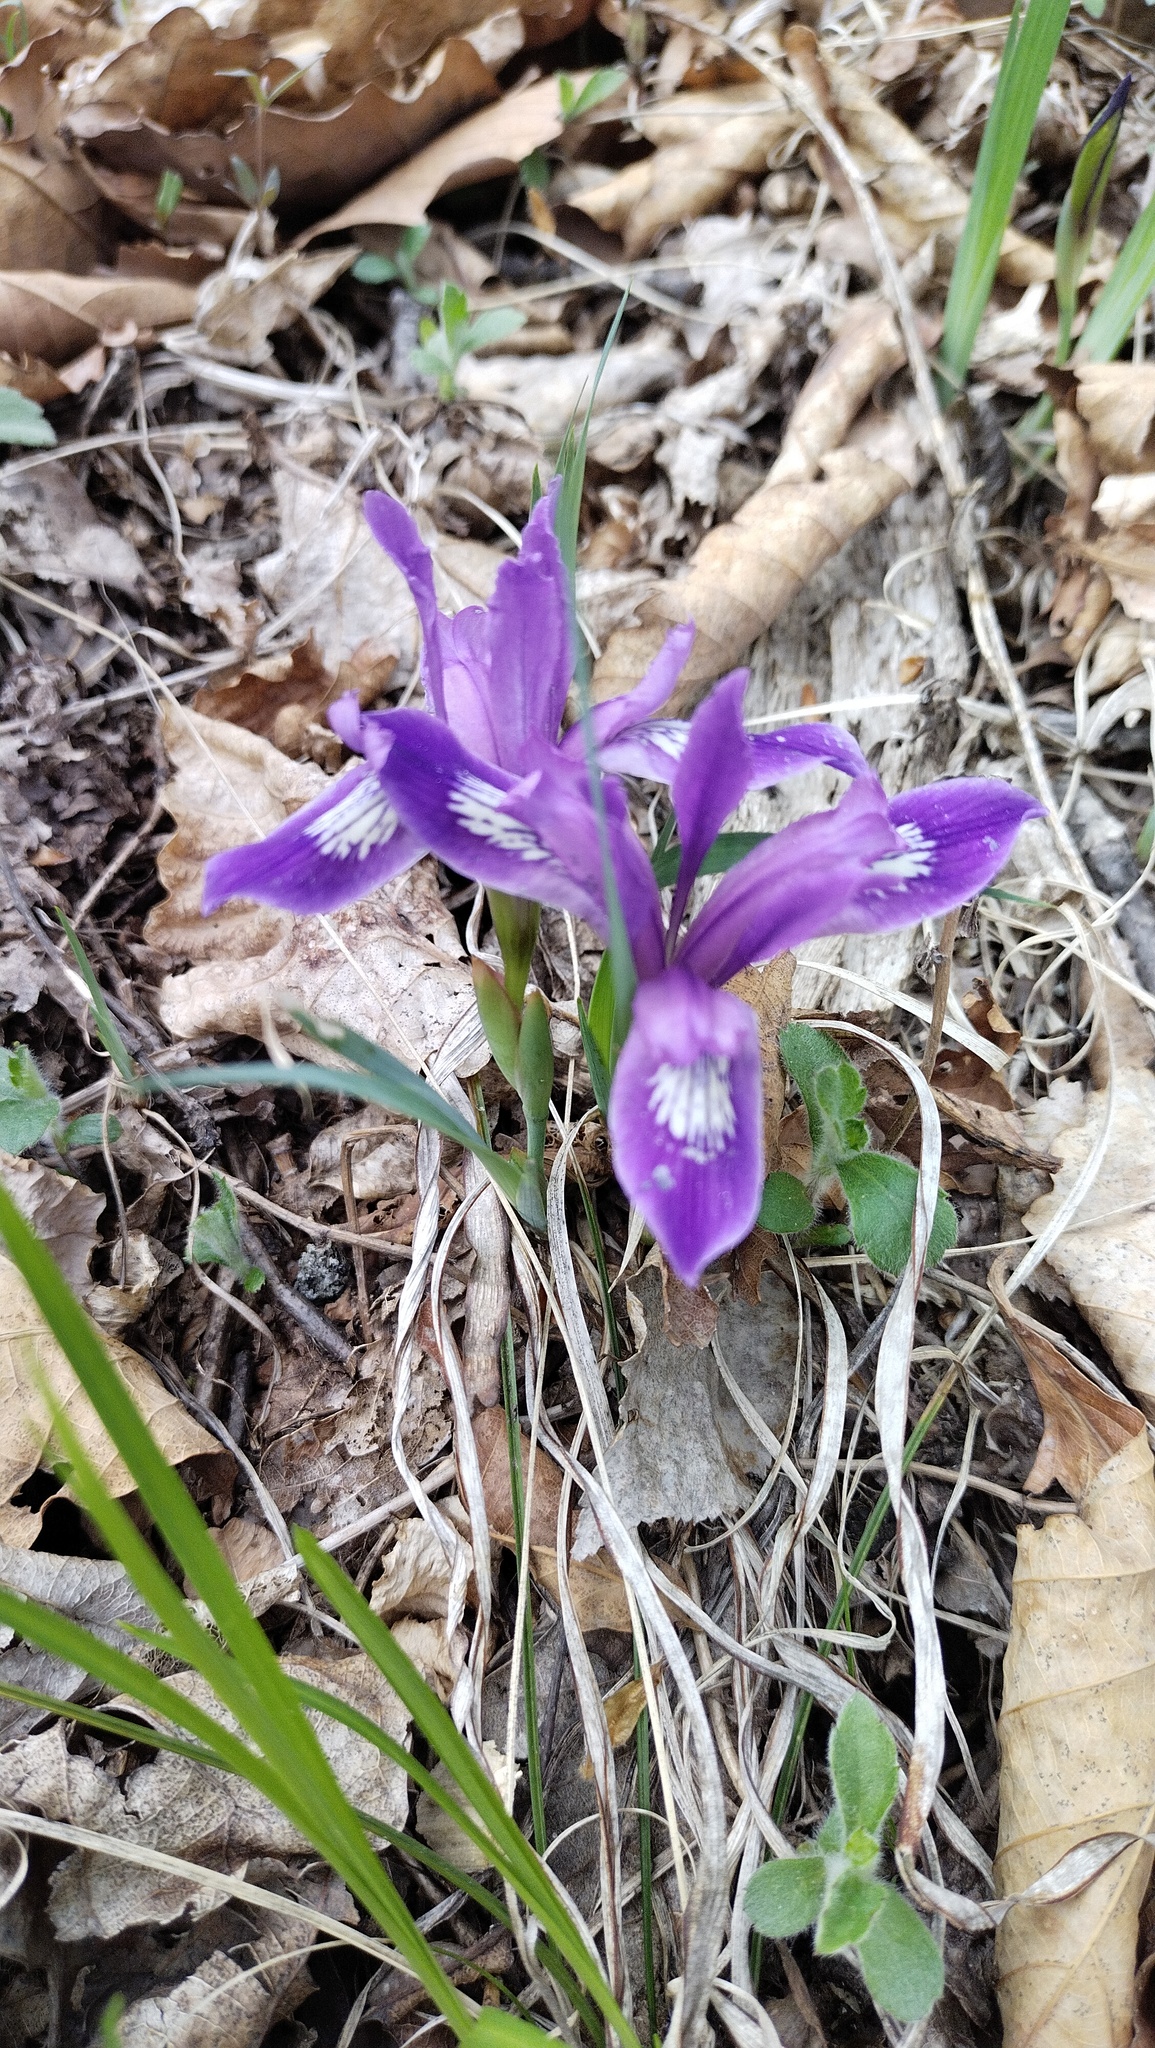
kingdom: Plantae
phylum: Tracheophyta
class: Liliopsida
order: Asparagales
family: Iridaceae
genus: Iris
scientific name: Iris uniflora
